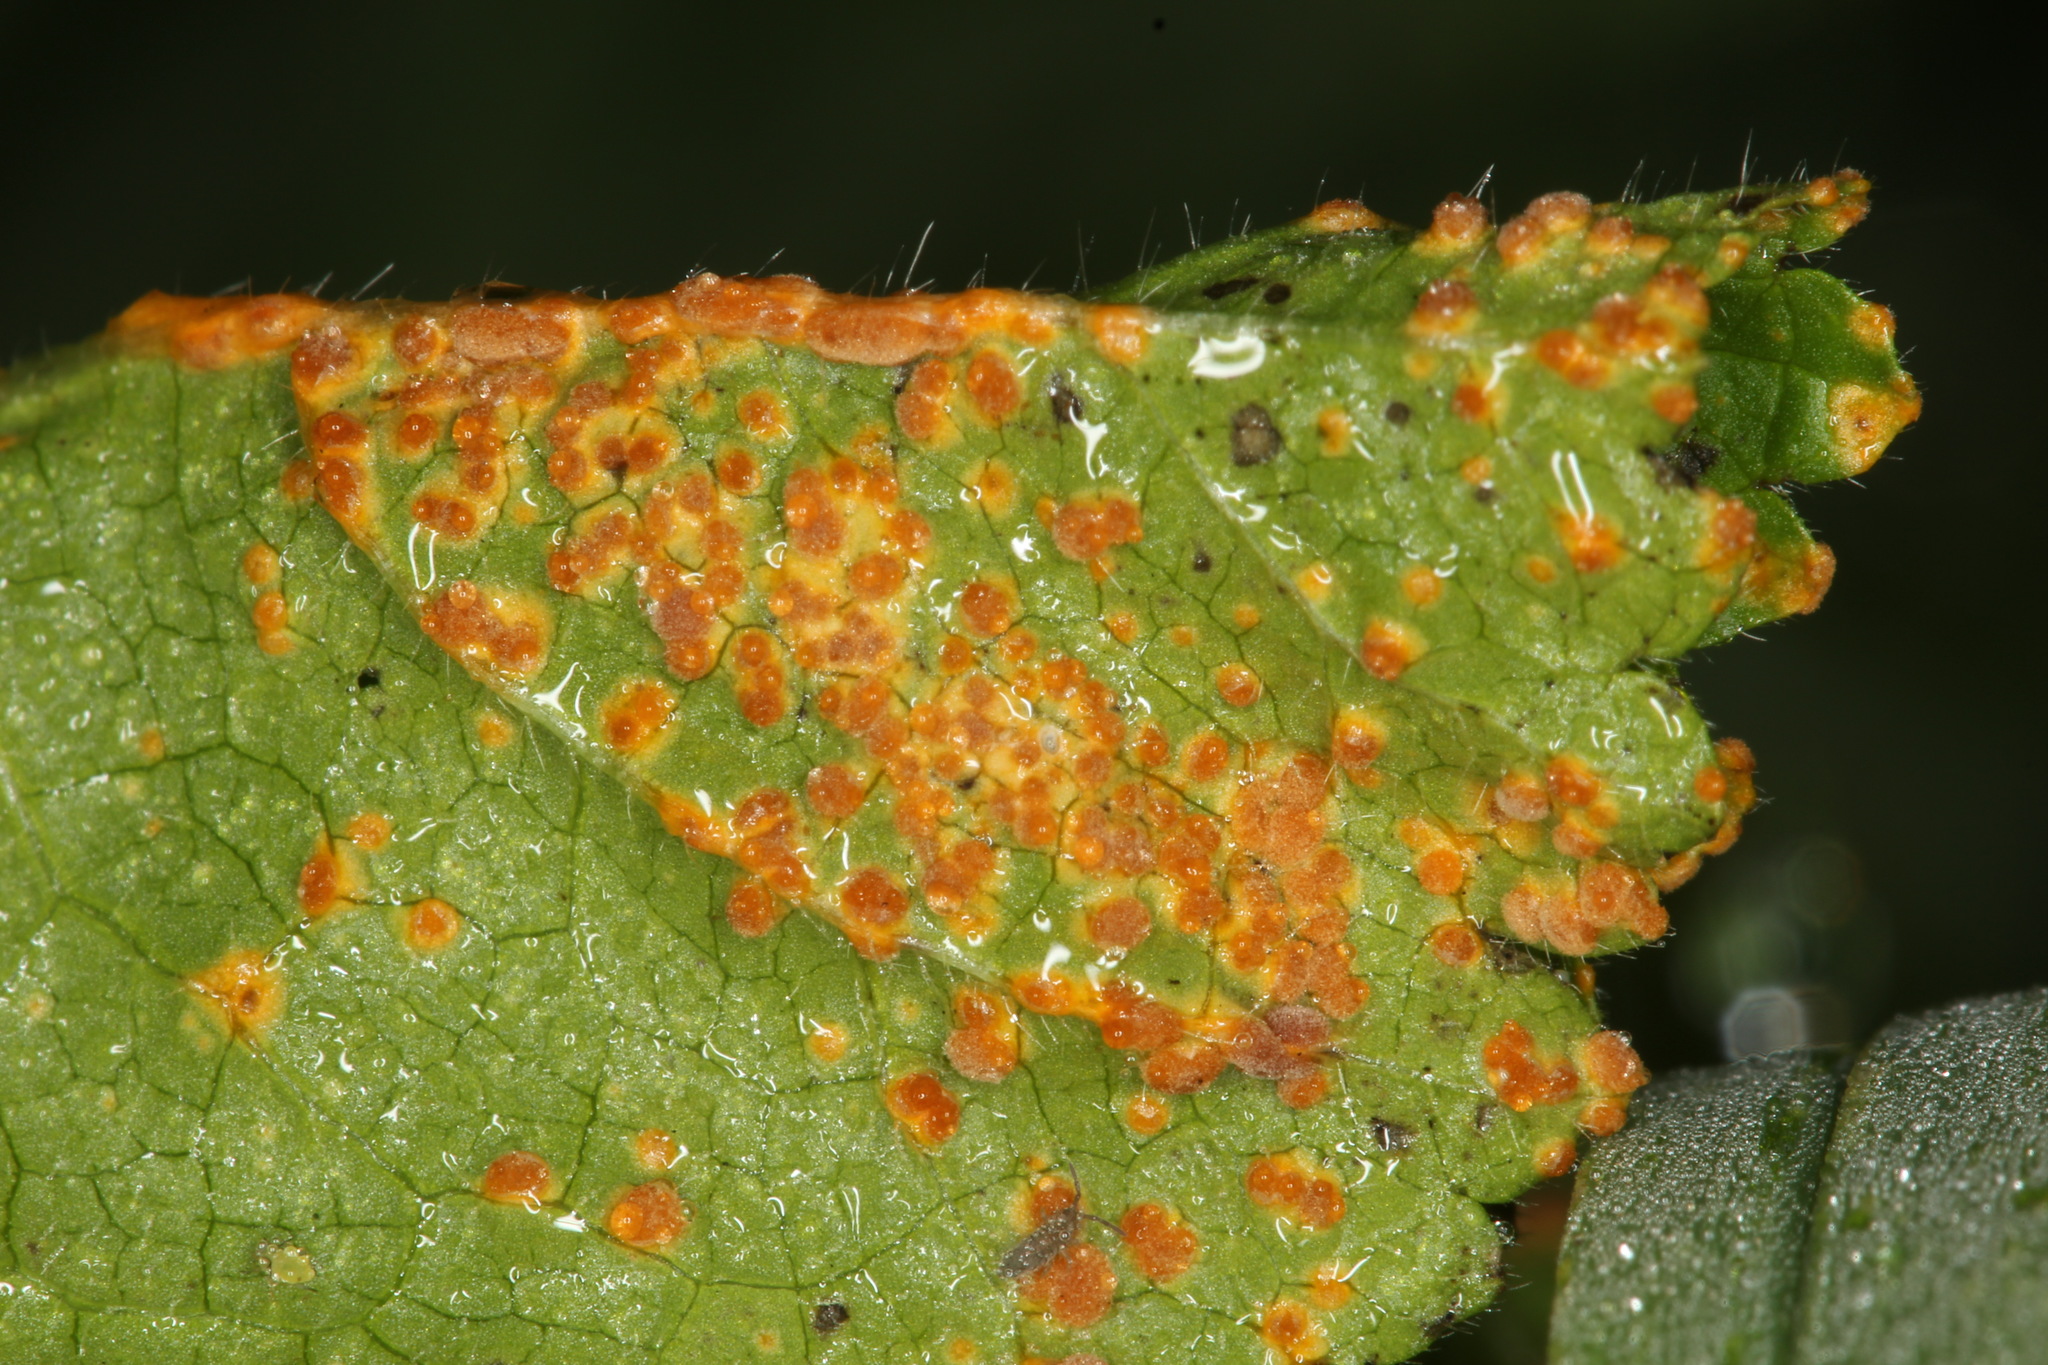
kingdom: Fungi
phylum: Basidiomycota
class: Pucciniomycetes
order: Pucciniales
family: Pucciniaceae
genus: Puccinia
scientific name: Puccinia malvacearum
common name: Hollyhock rust
